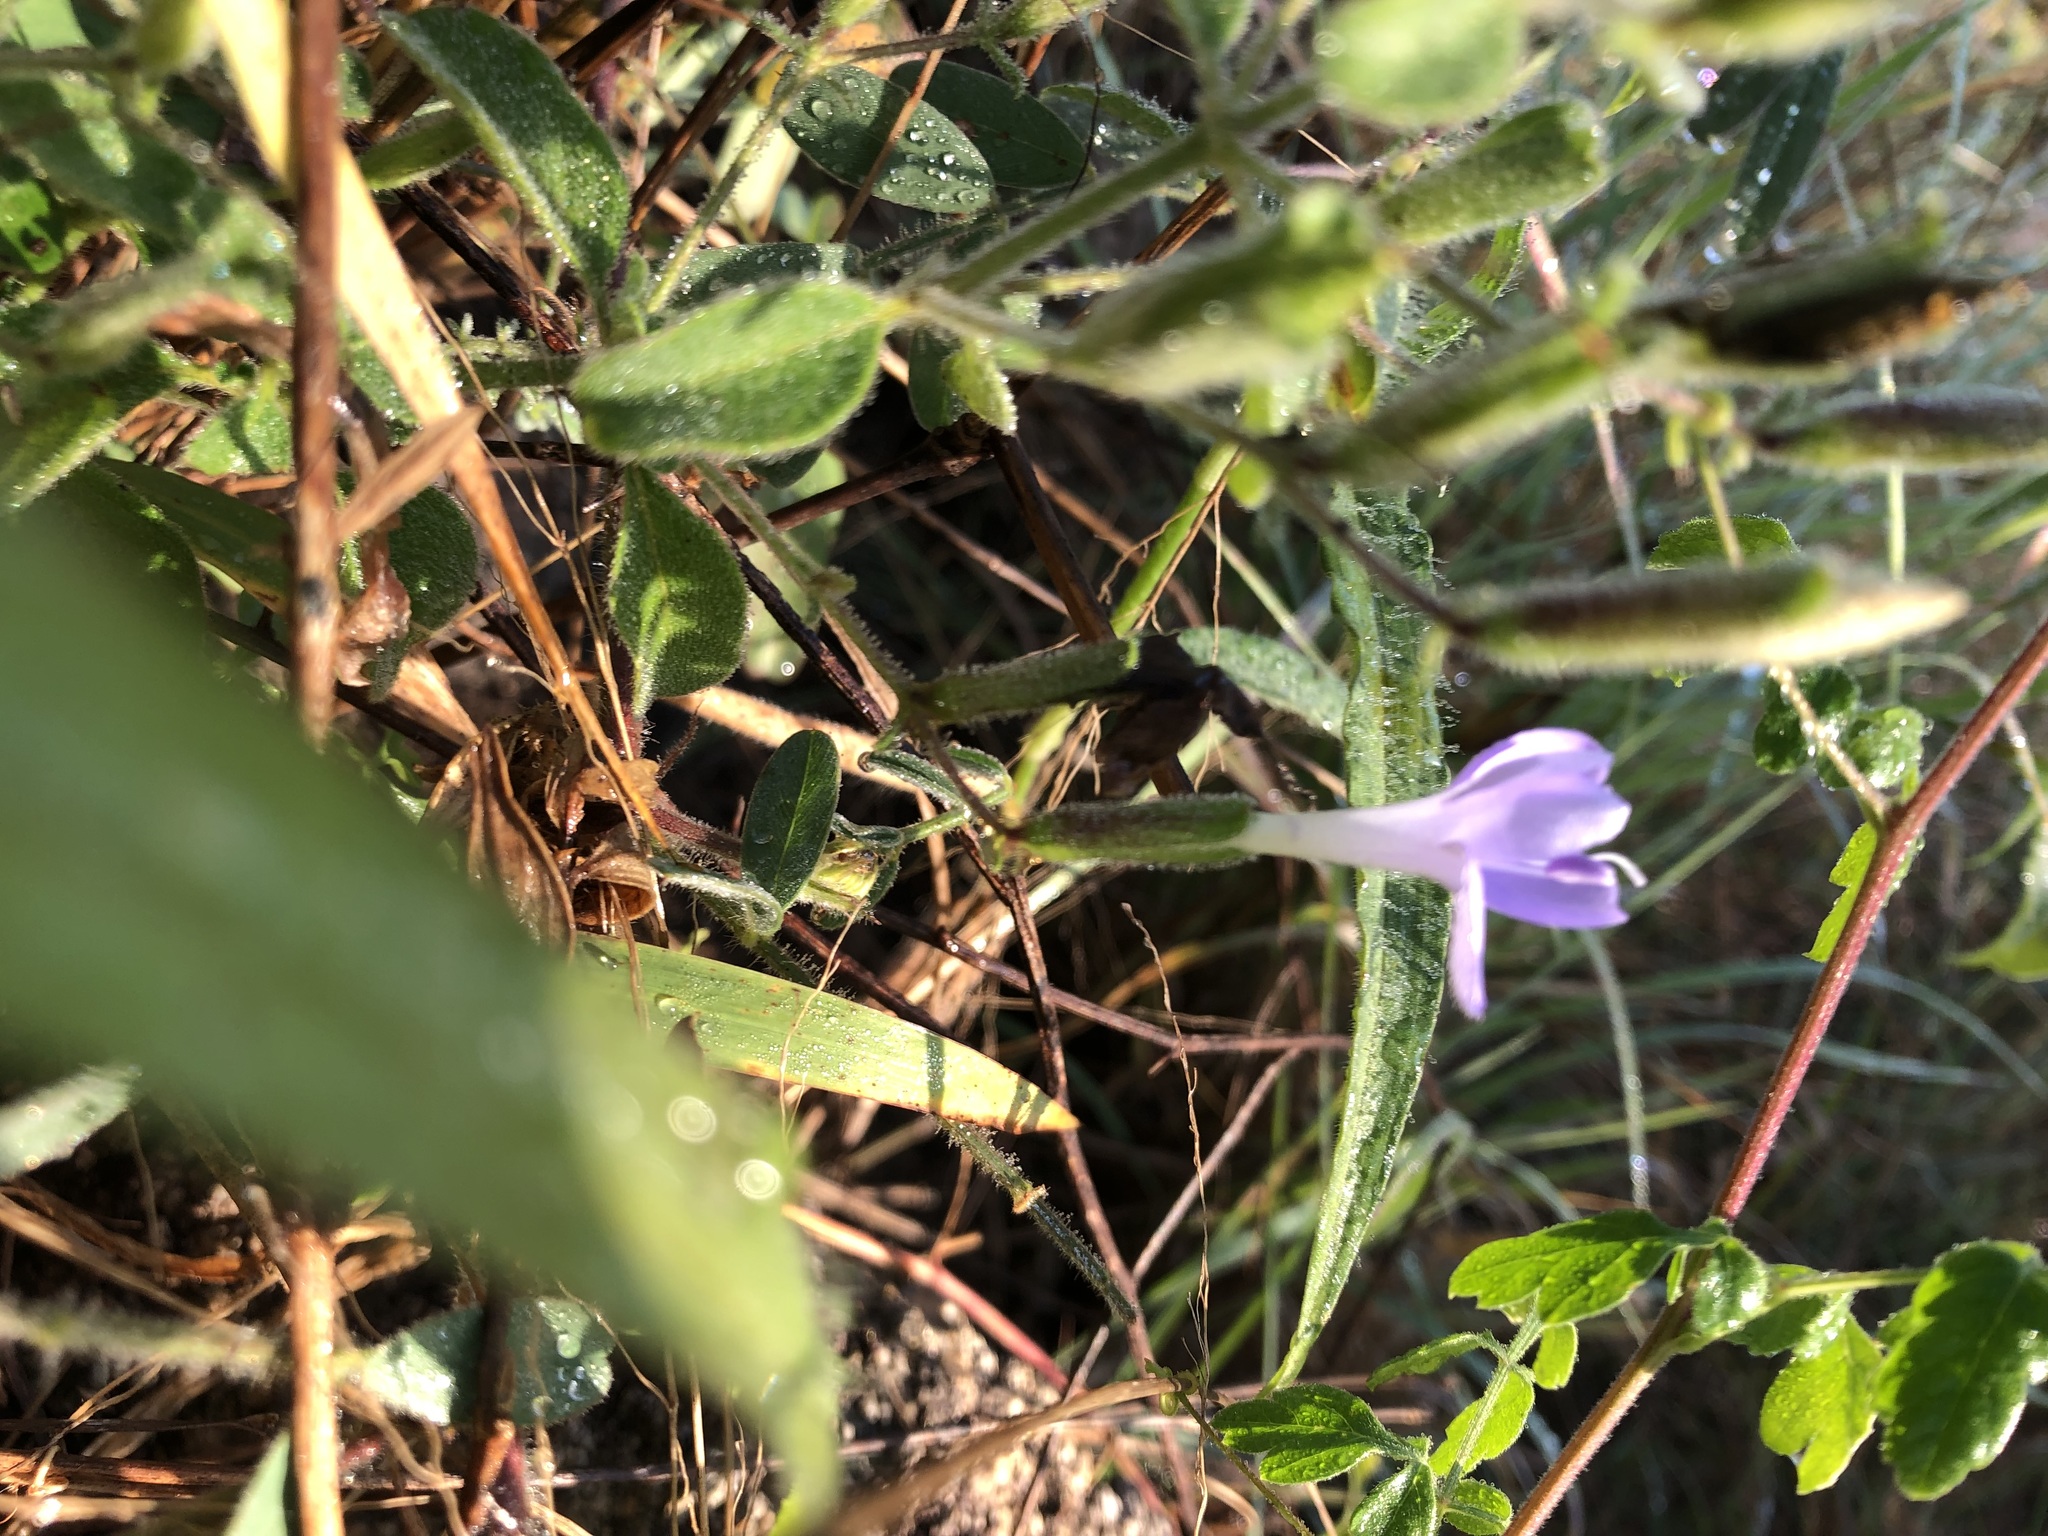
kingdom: Plantae
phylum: Tracheophyta
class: Magnoliopsida
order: Lamiales
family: Acanthaceae
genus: Barleria
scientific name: Barleria obtusa
